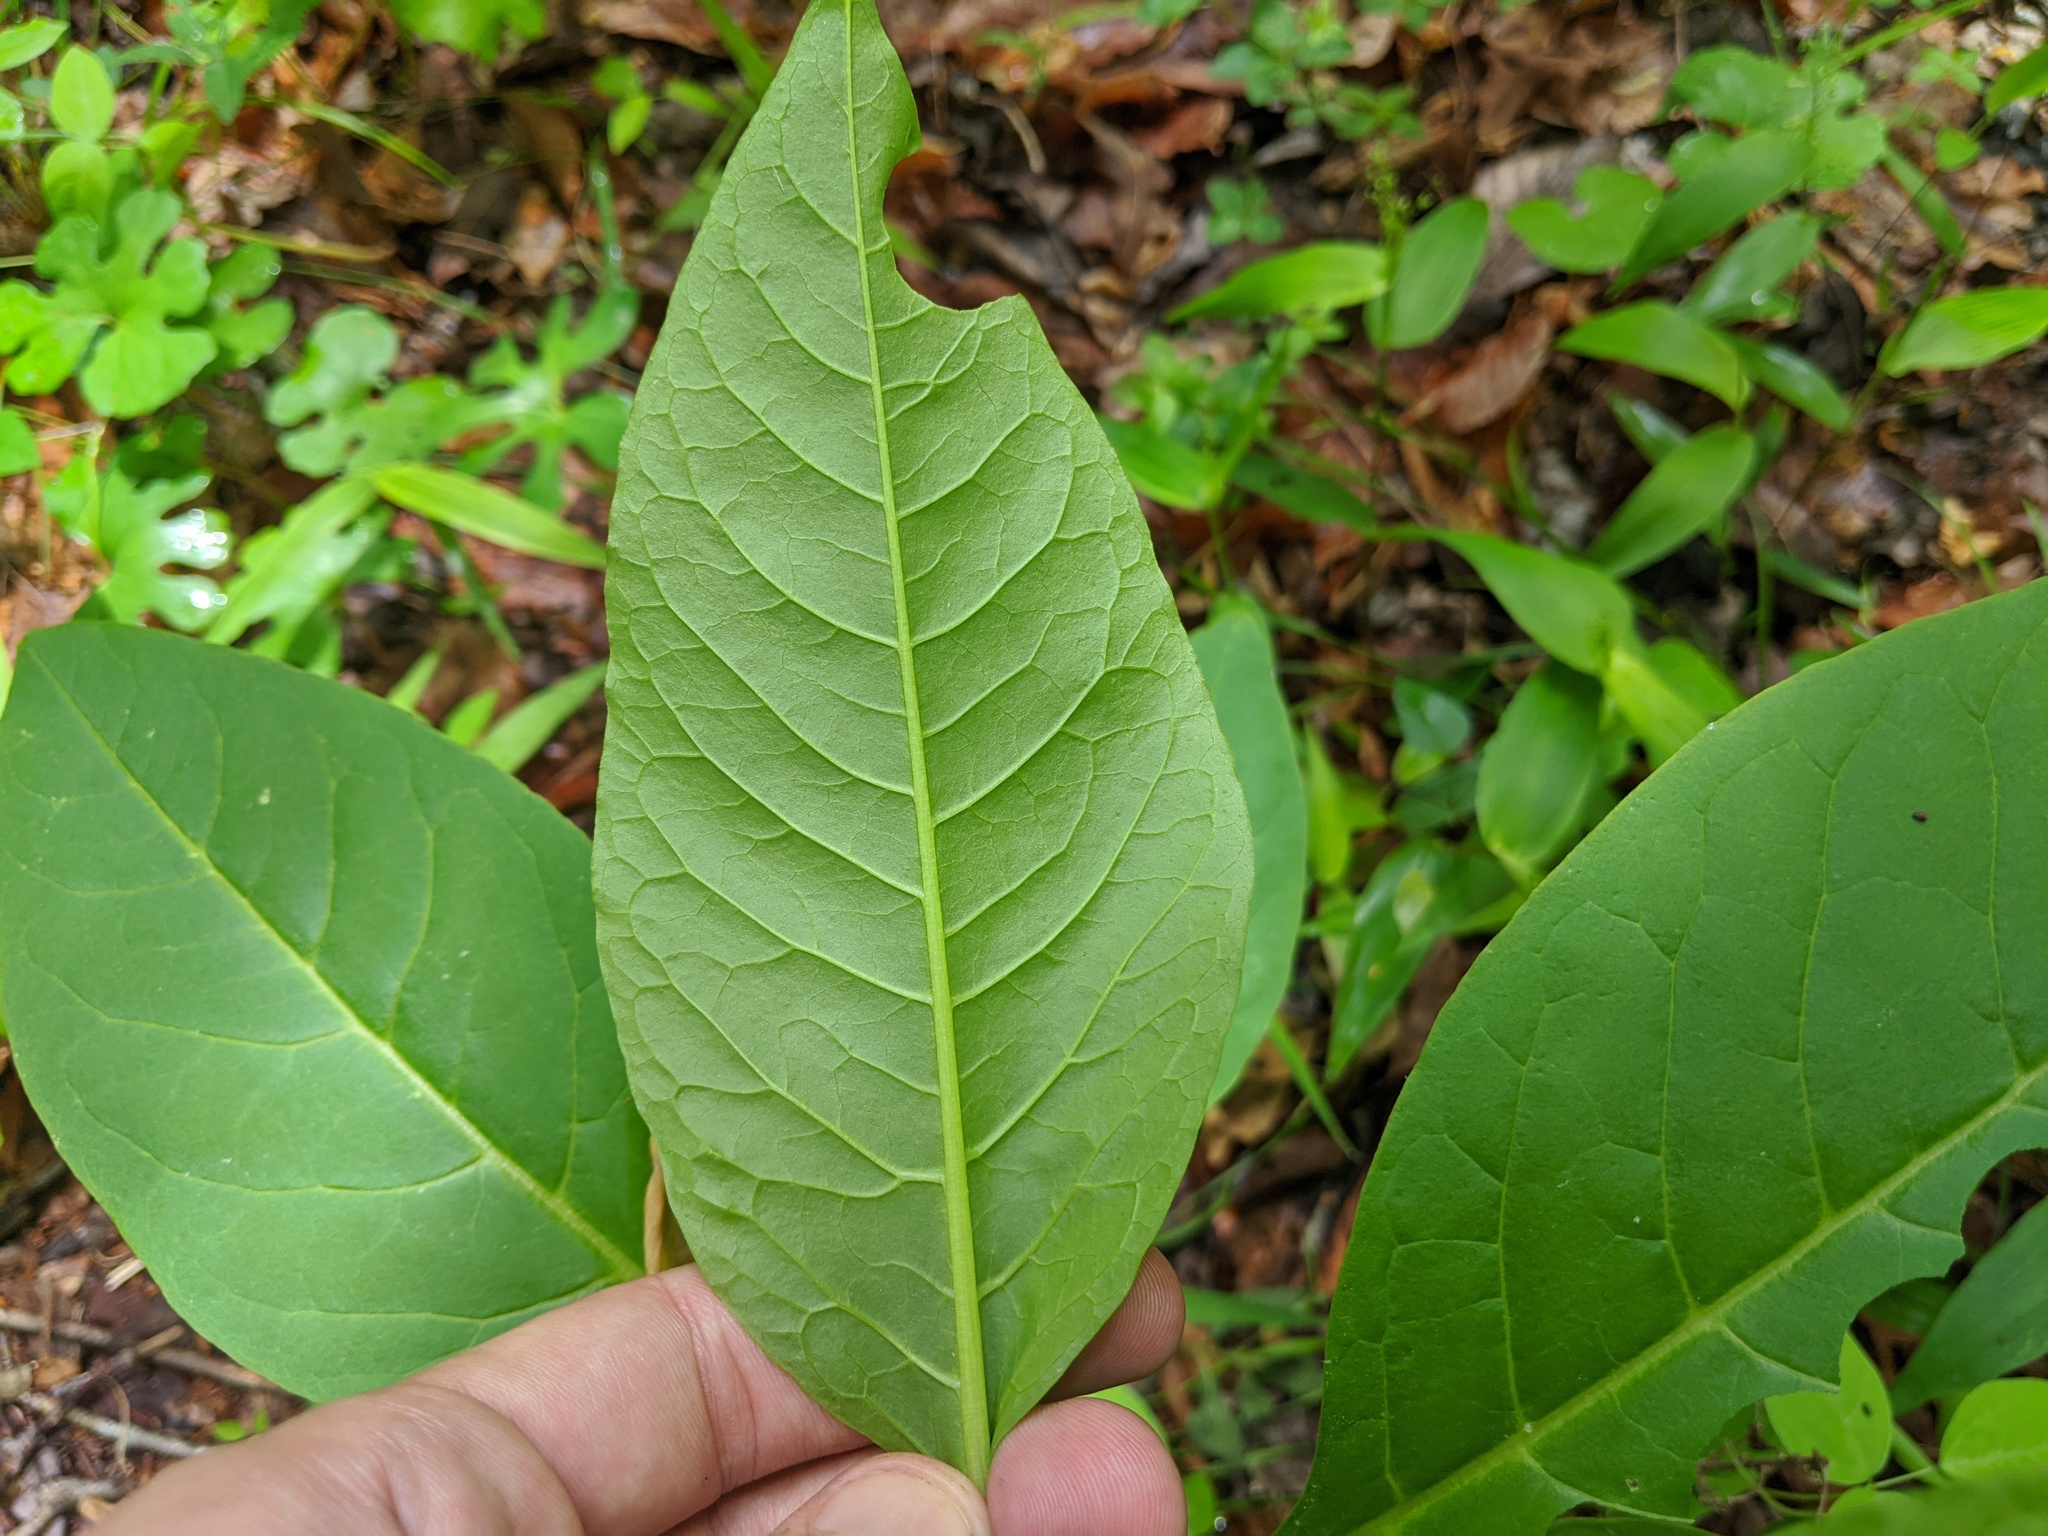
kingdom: Plantae
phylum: Tracheophyta
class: Magnoliopsida
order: Caryophyllales
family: Phytolaccaceae
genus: Phytolacca
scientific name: Phytolacca americana
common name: American pokeweed
